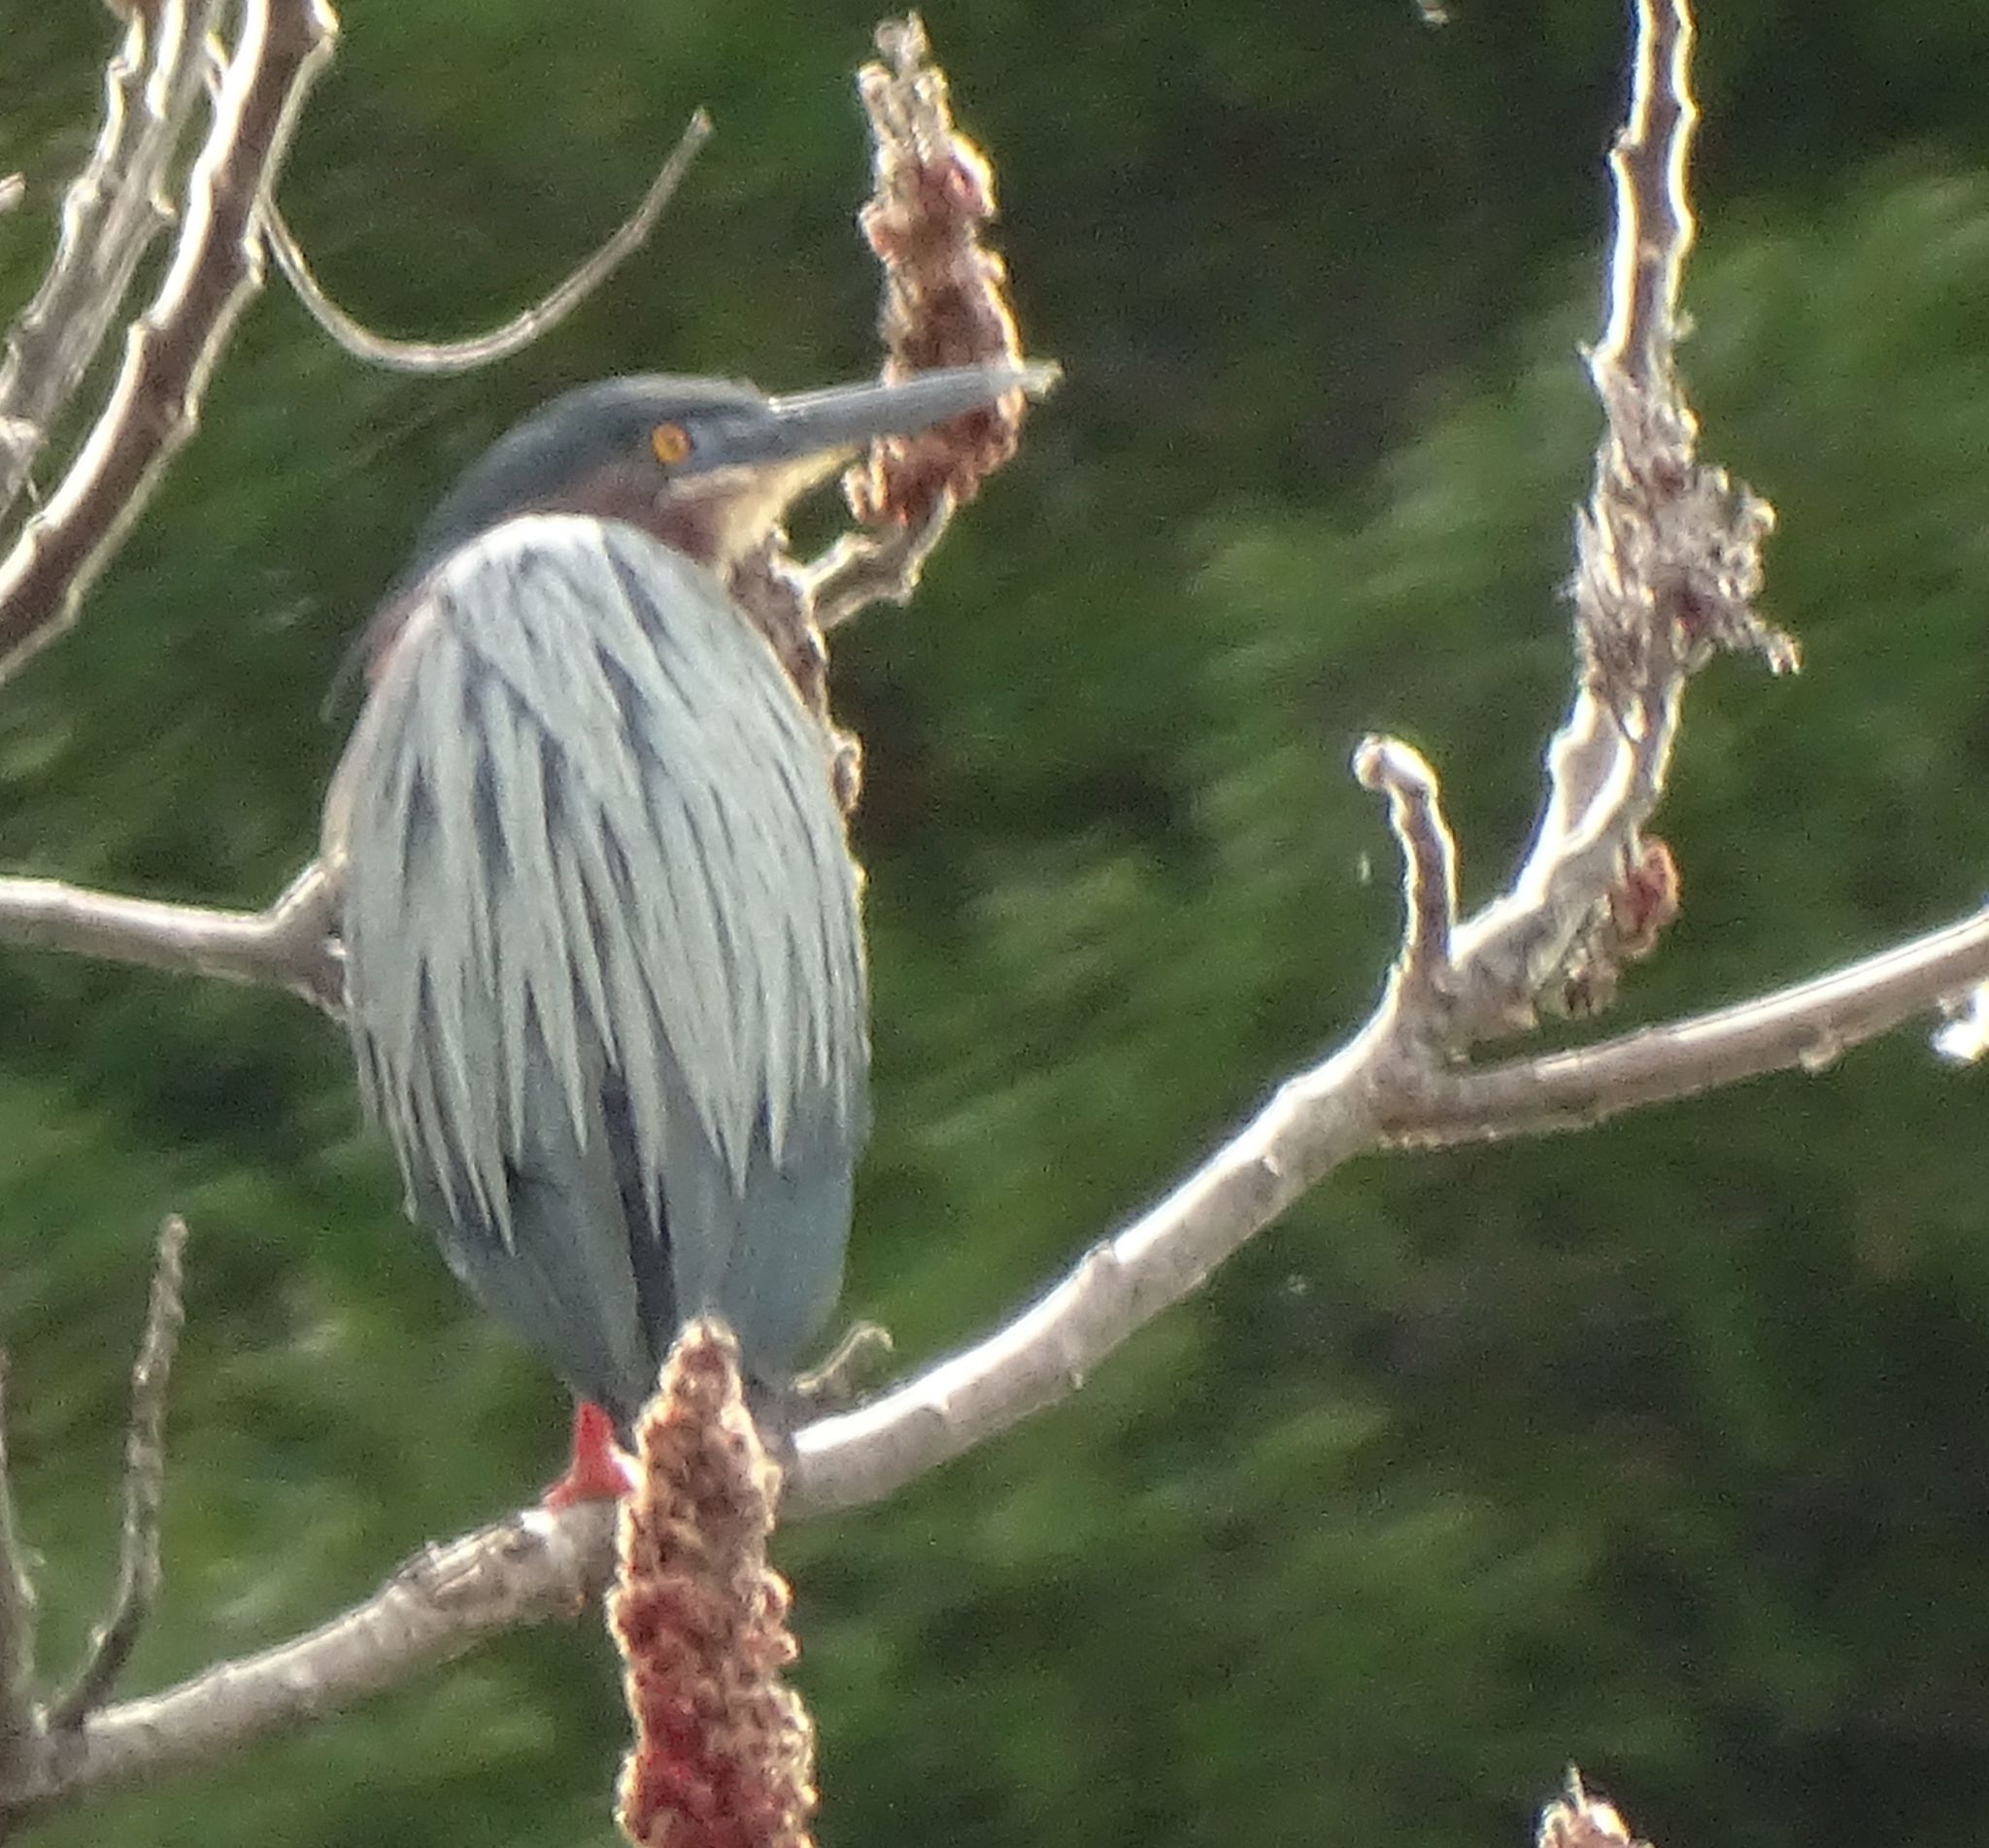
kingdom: Animalia
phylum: Chordata
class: Aves
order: Pelecaniformes
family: Ardeidae
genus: Butorides
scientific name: Butorides virescens
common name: Green heron
